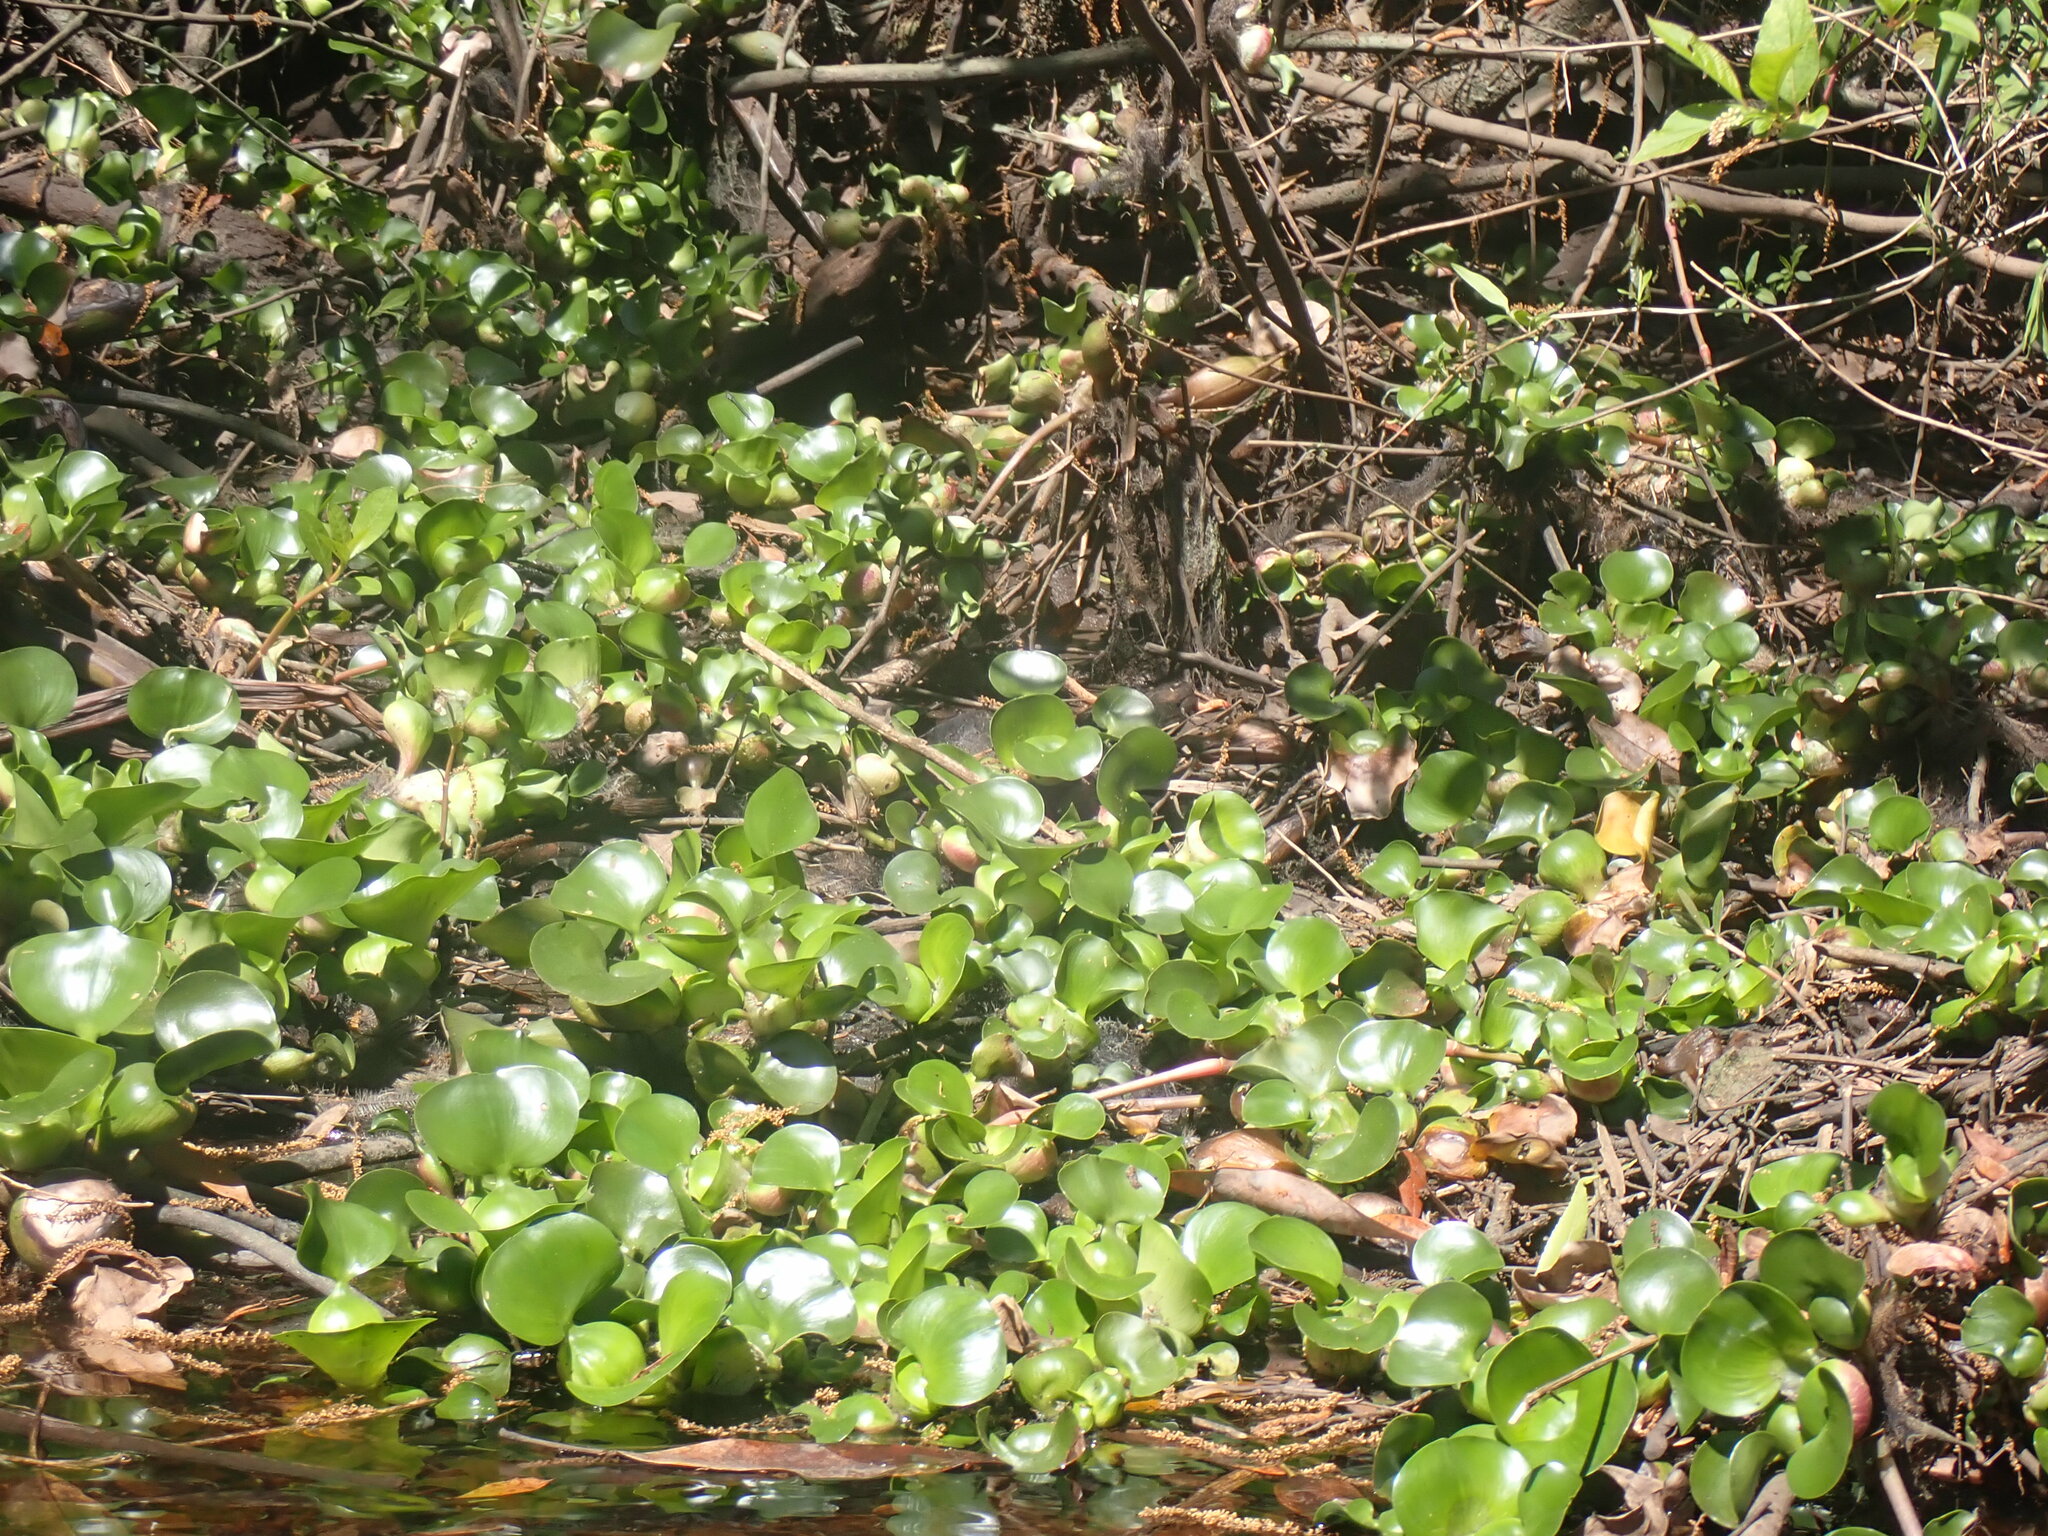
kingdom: Plantae
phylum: Tracheophyta
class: Liliopsida
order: Commelinales
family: Pontederiaceae
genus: Pontederia
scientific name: Pontederia crassipes
